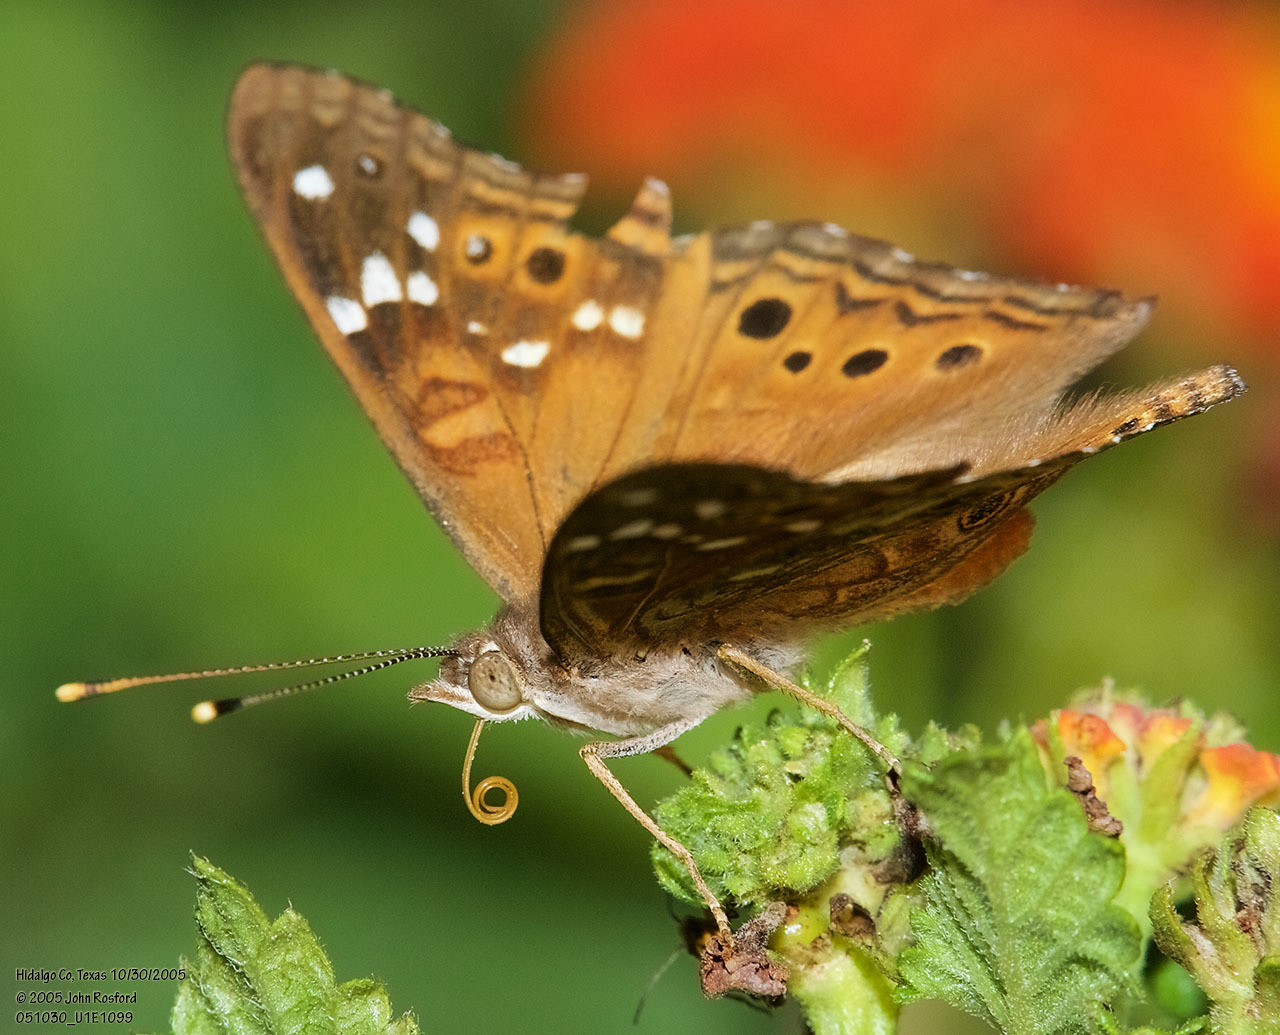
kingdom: Animalia
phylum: Arthropoda
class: Insecta
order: Lepidoptera
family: Nymphalidae
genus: Asterocampa
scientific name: Asterocampa leilia
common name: Empress leilia
